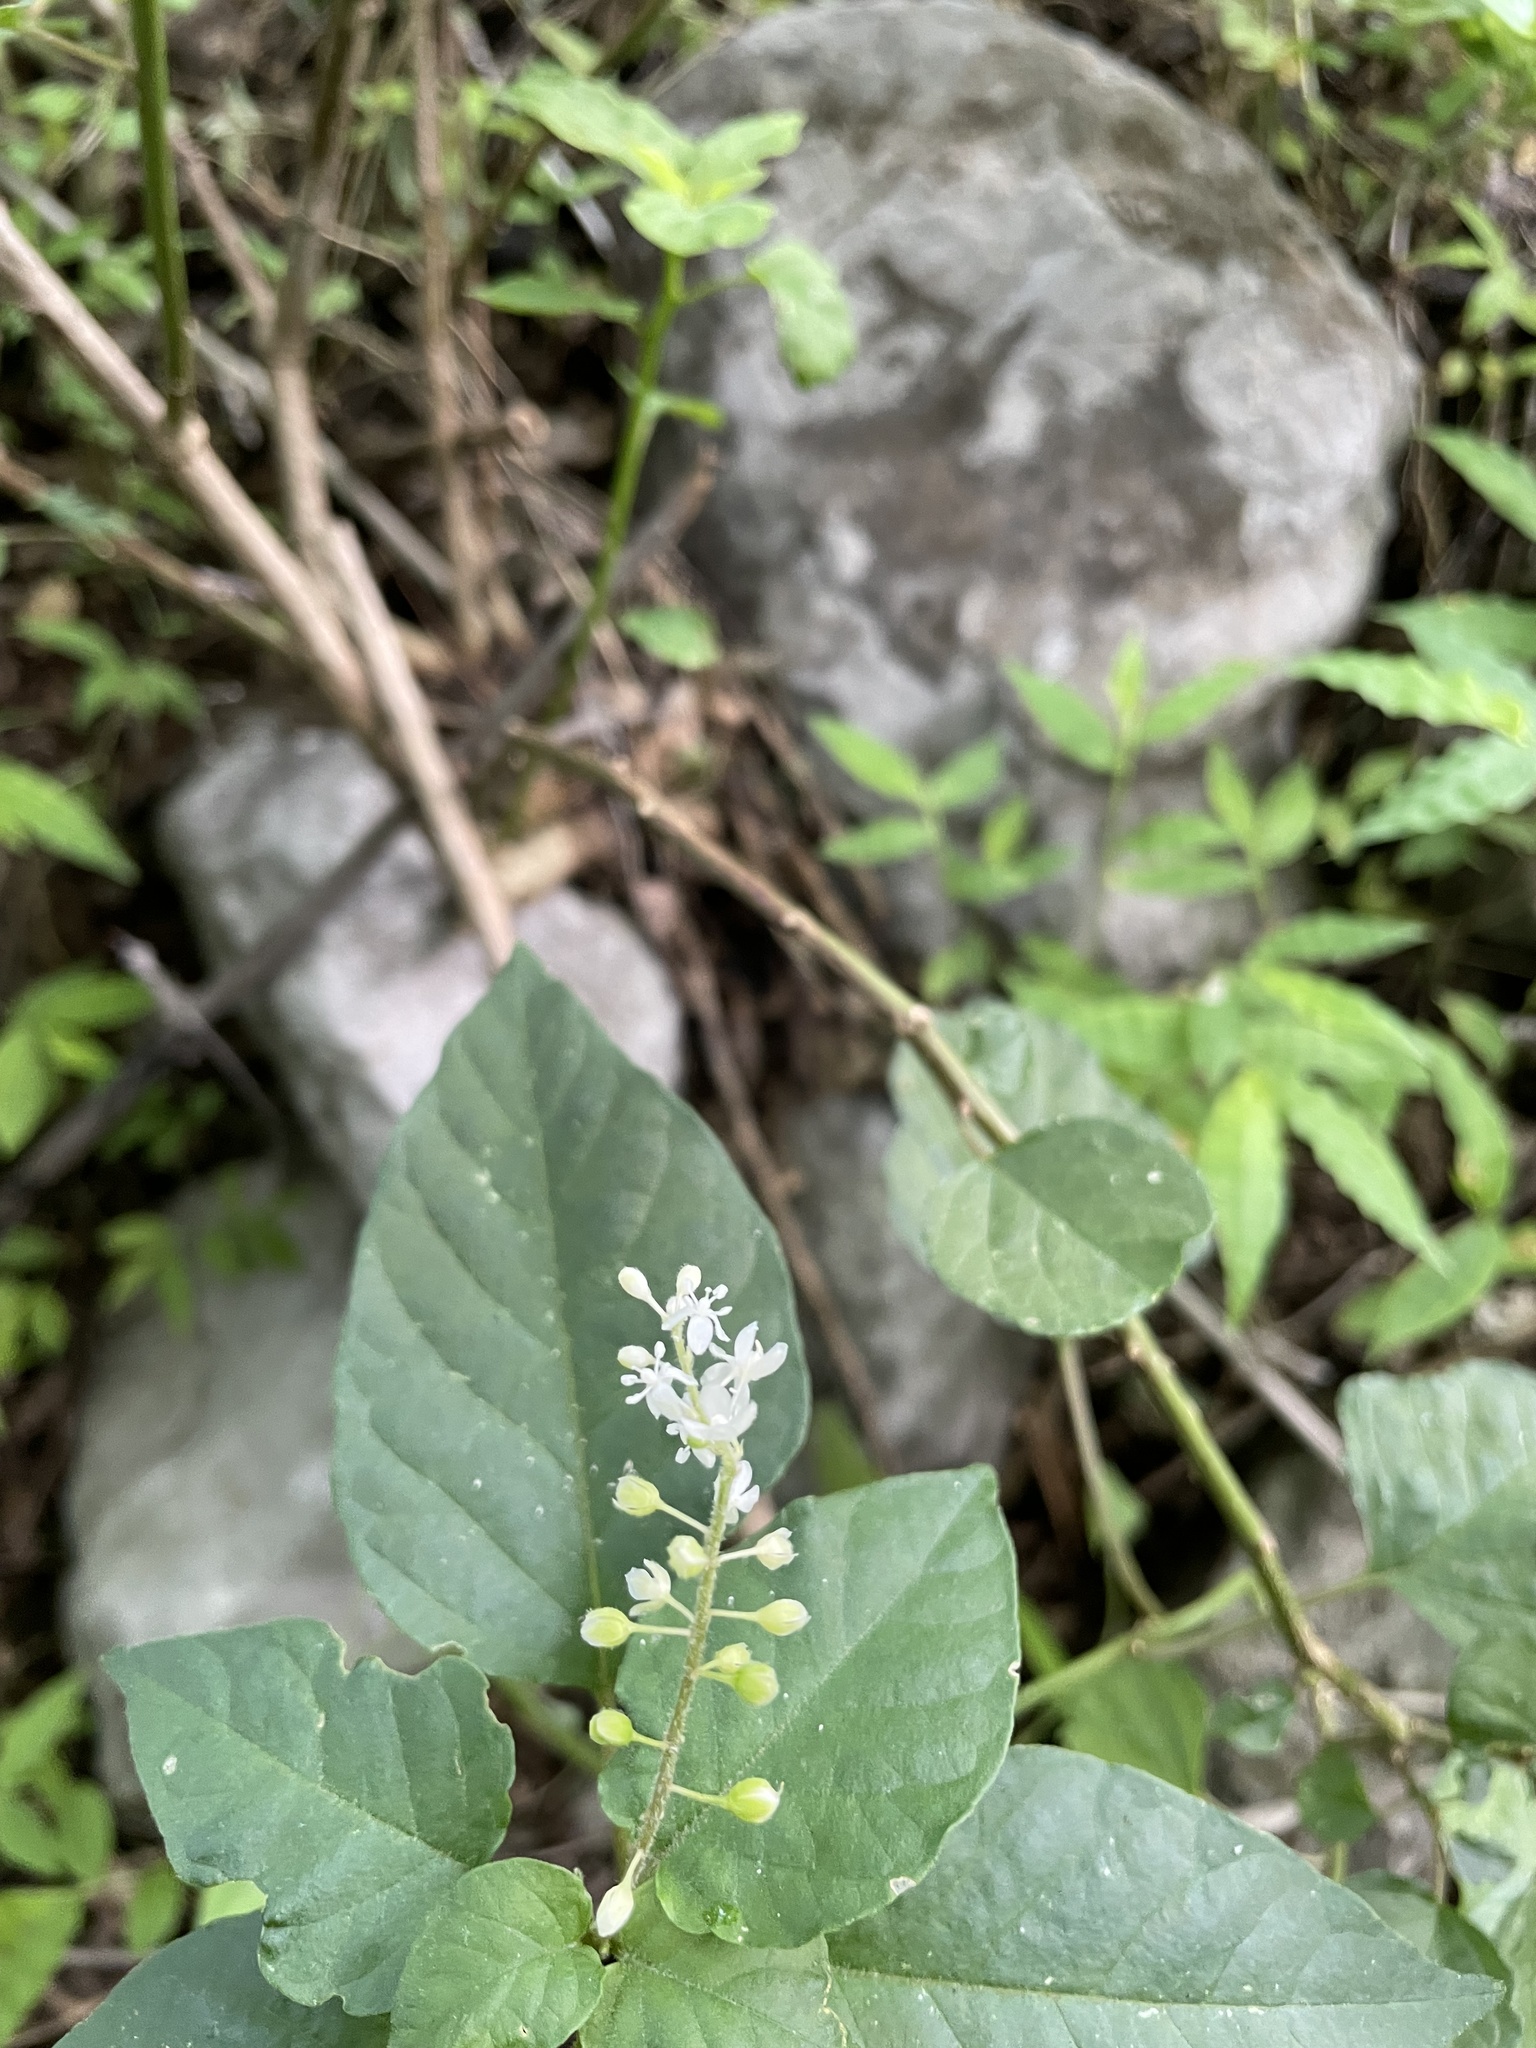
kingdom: Plantae
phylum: Tracheophyta
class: Magnoliopsida
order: Caryophyllales
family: Phytolaccaceae
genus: Rivina
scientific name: Rivina humilis
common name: Rougeplant
